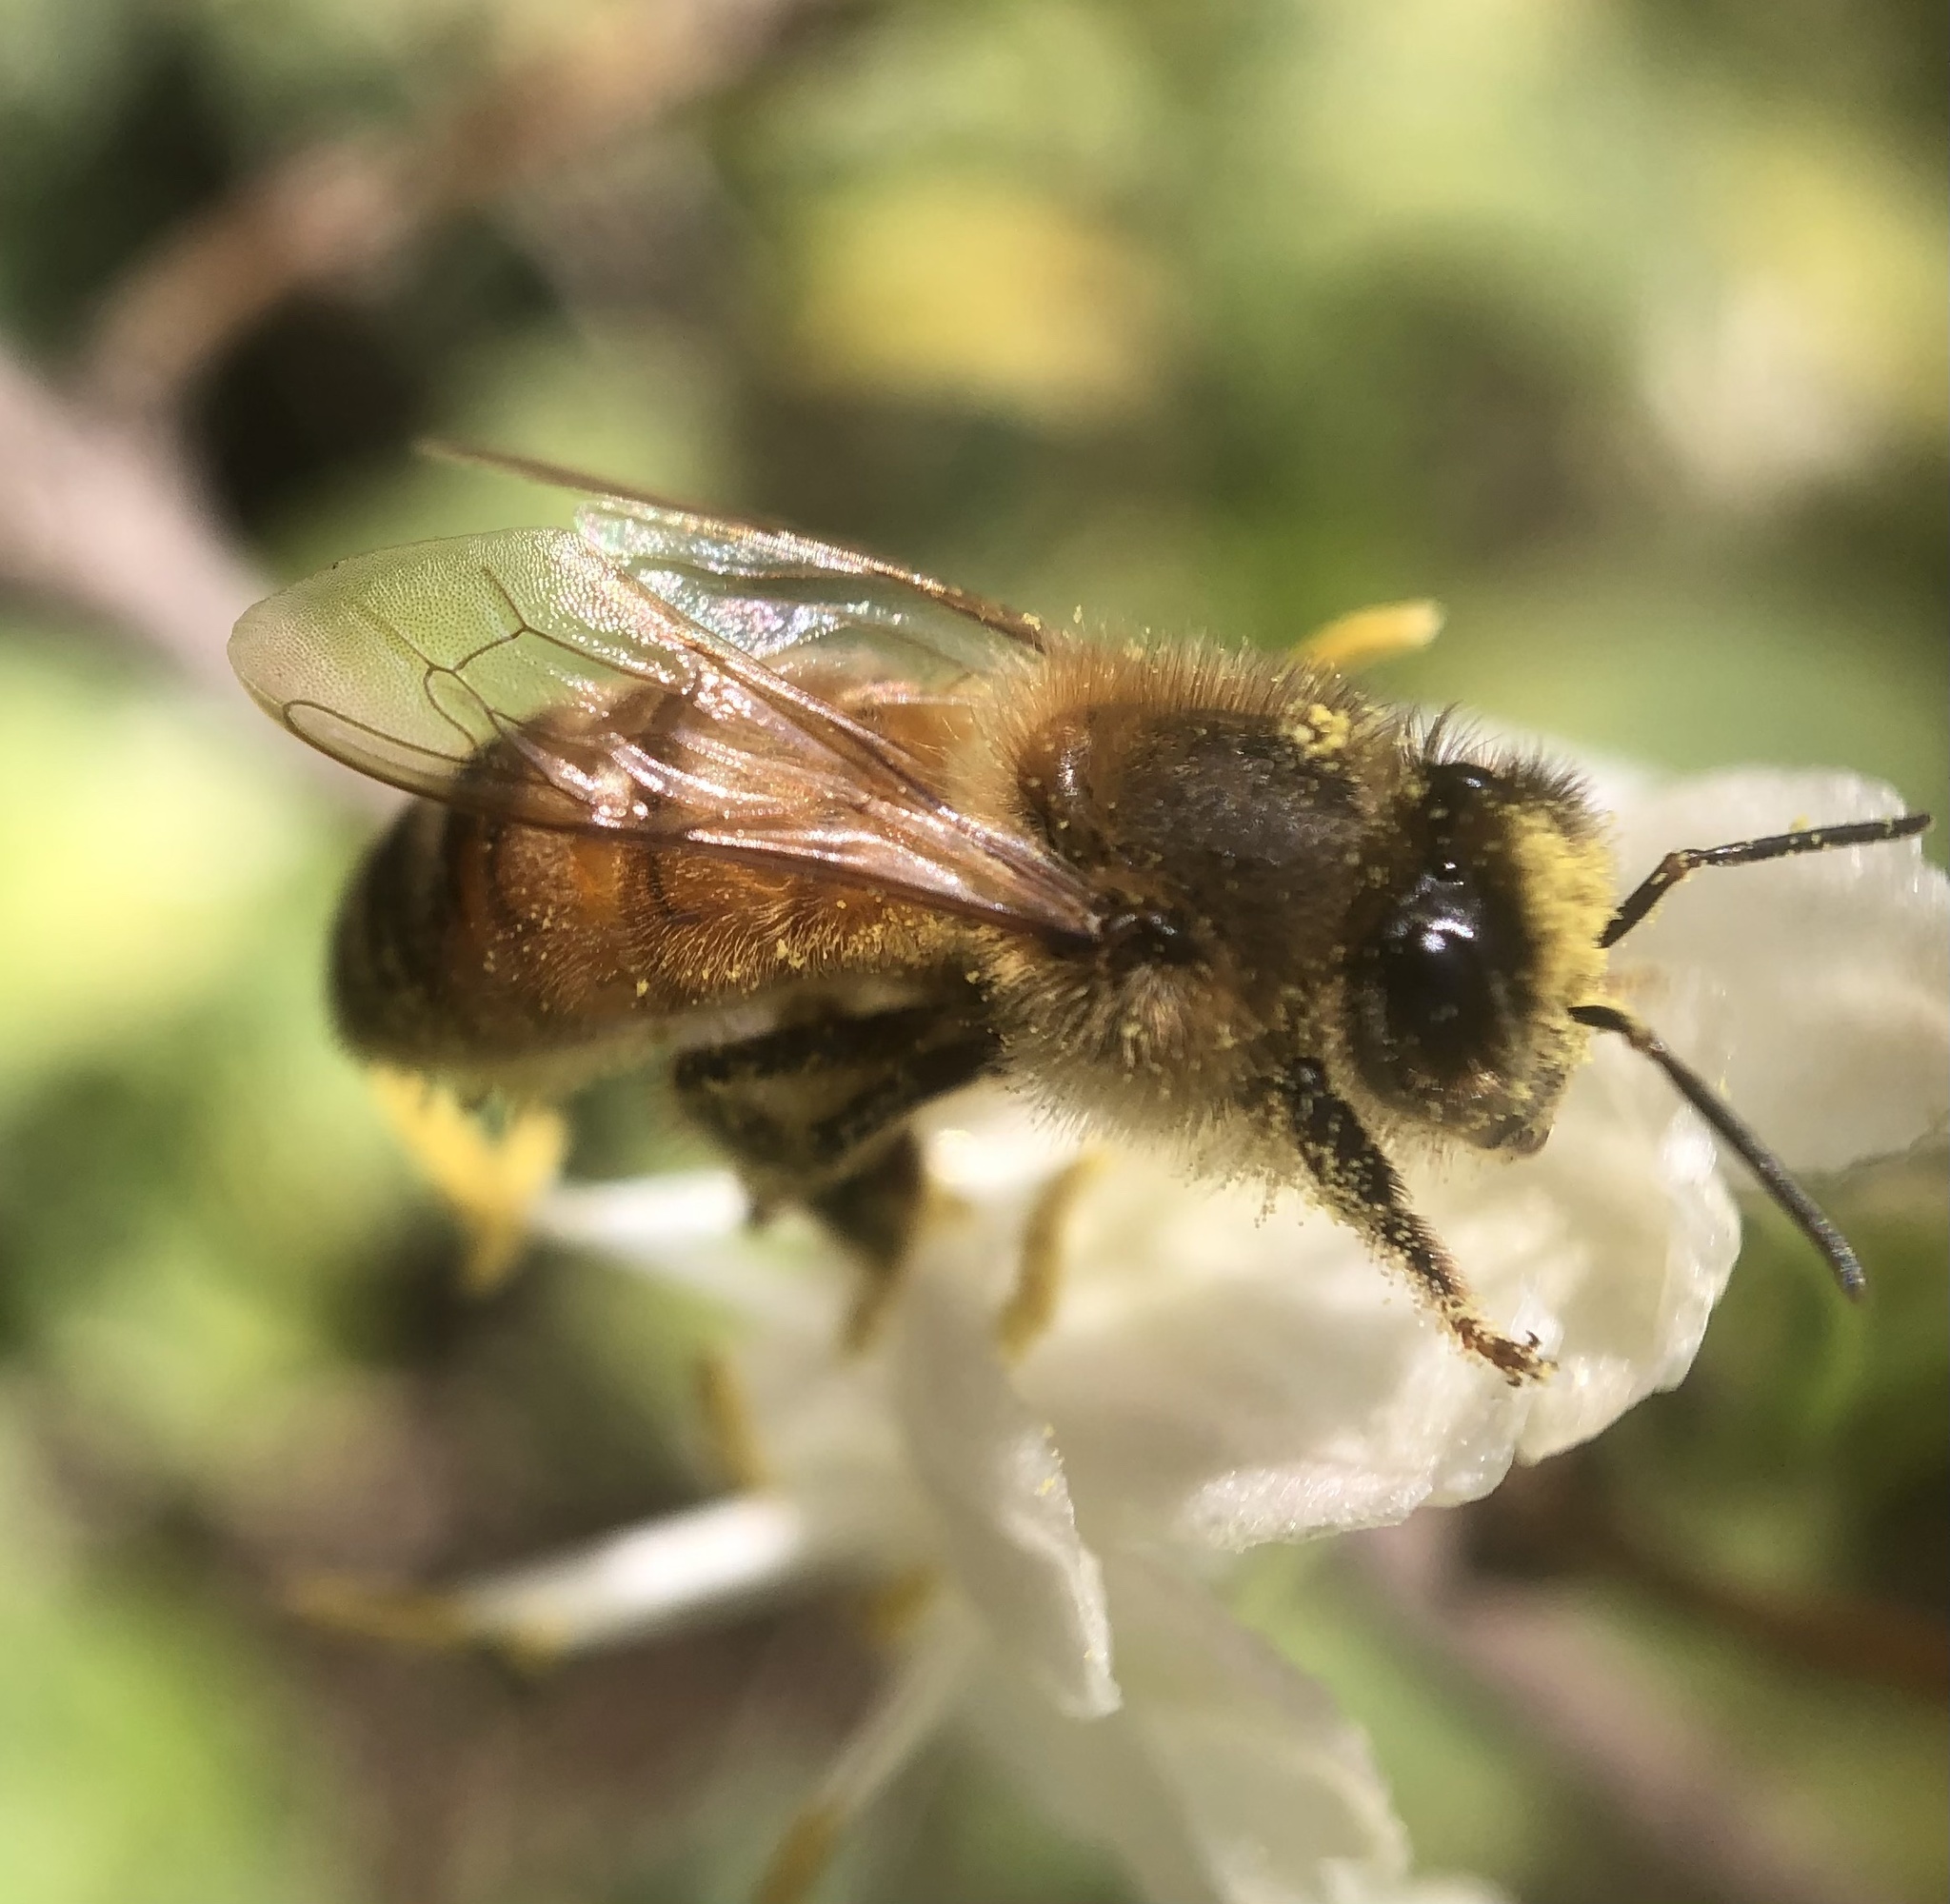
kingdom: Animalia
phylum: Arthropoda
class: Insecta
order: Hymenoptera
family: Apidae
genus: Apis
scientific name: Apis mellifera
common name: Honey bee
